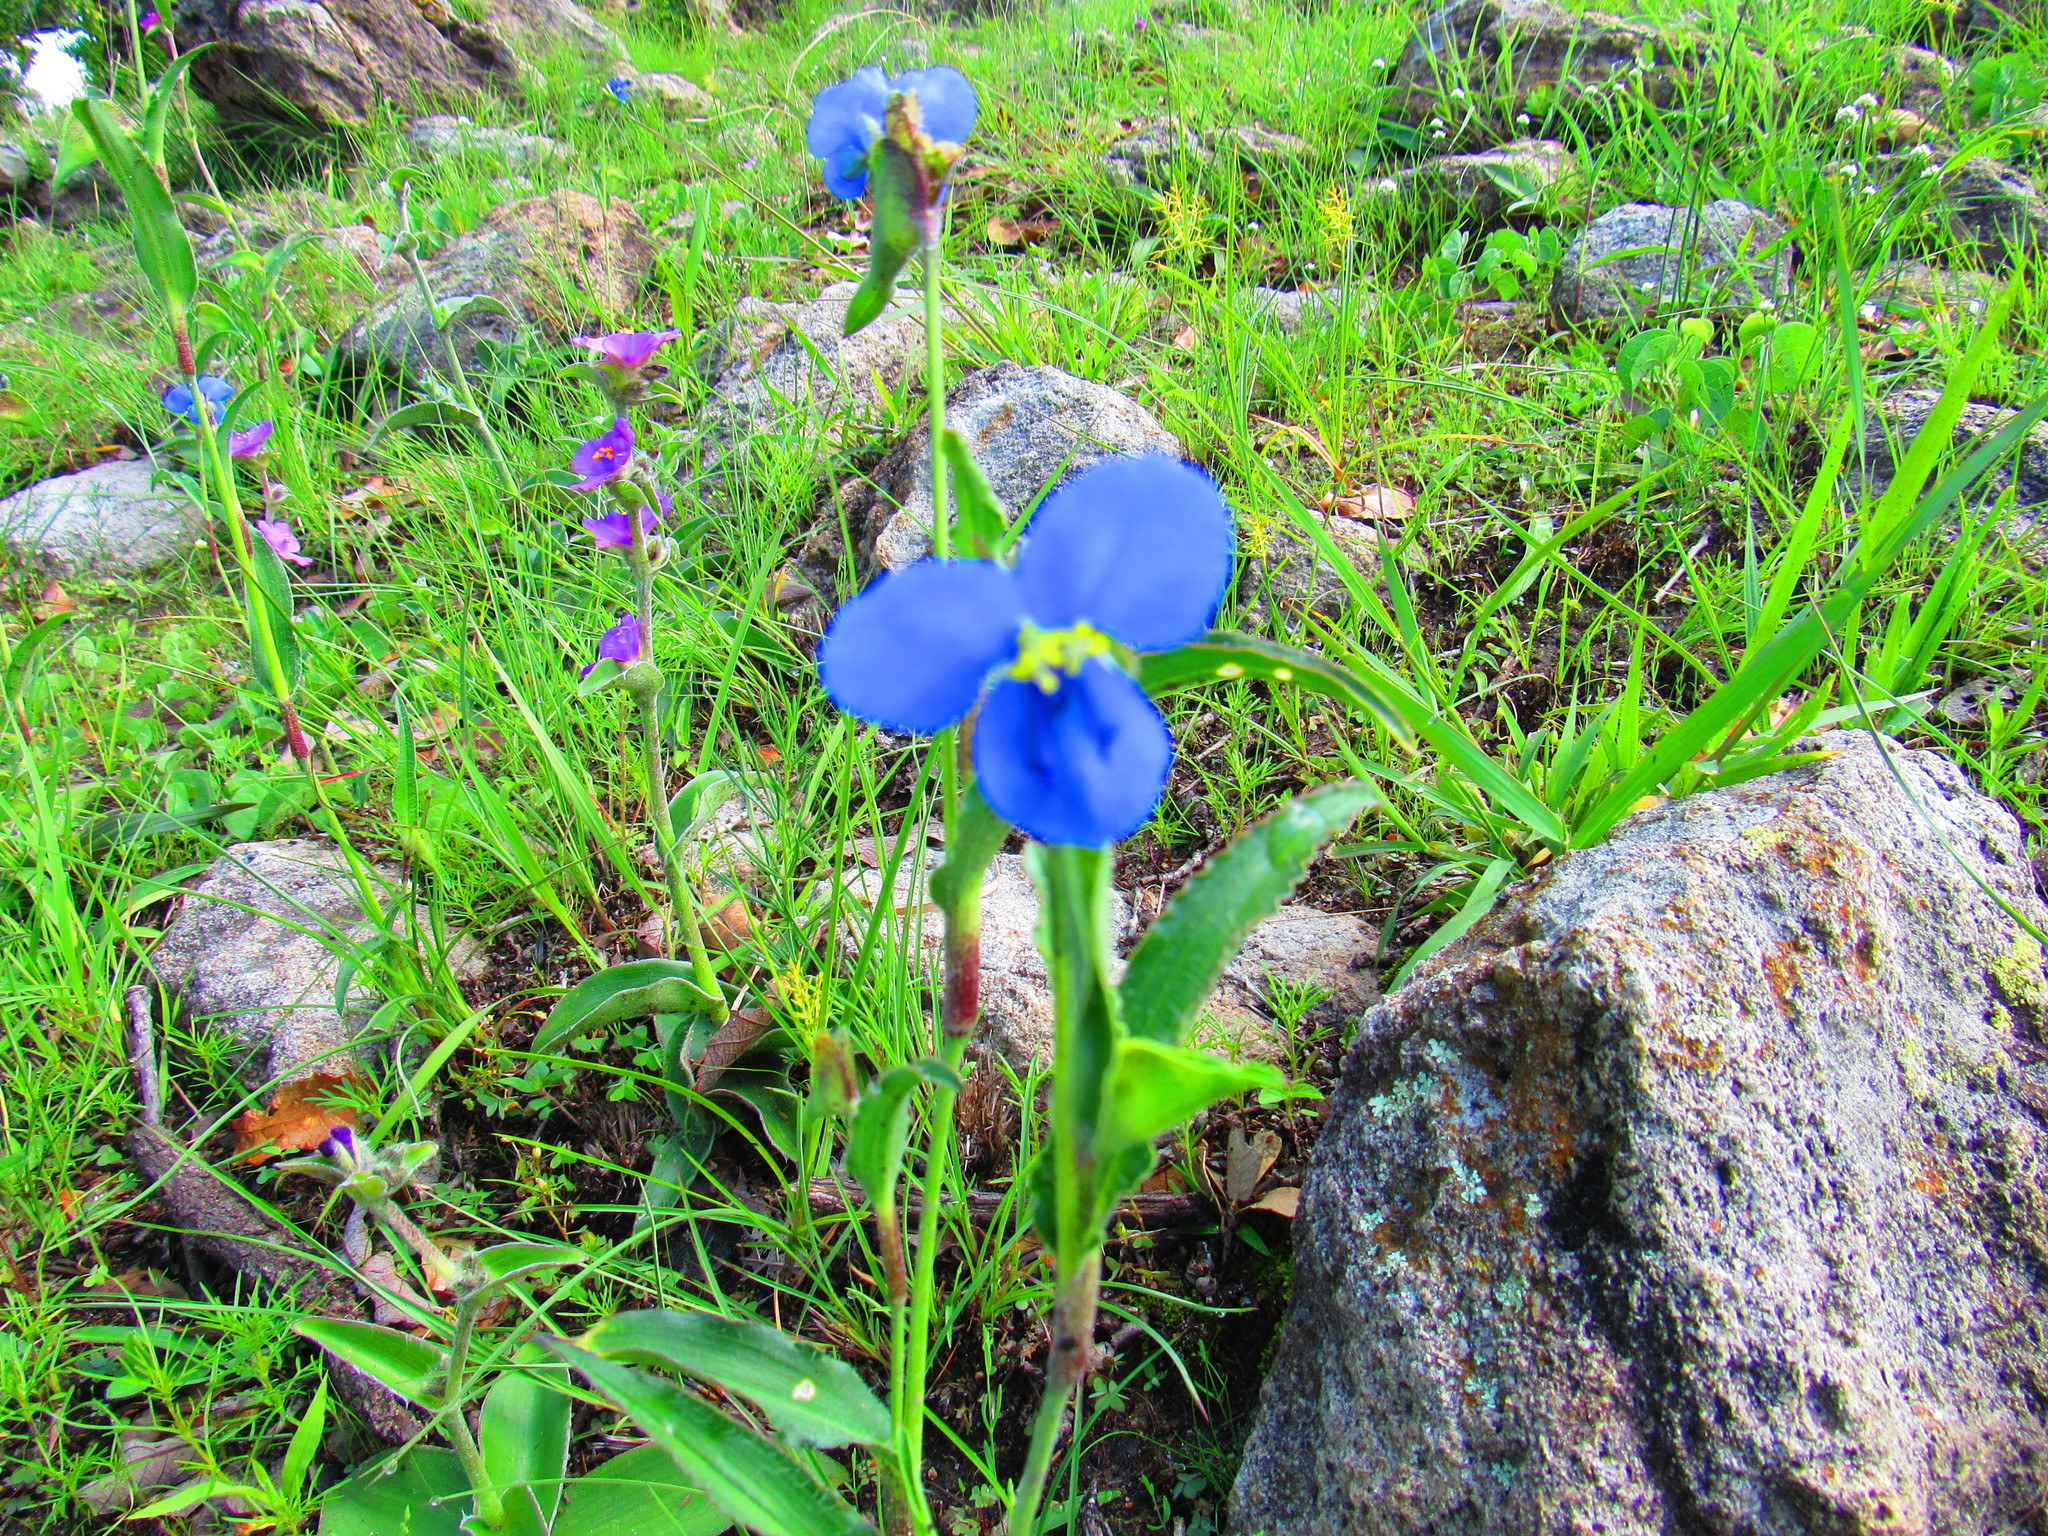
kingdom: Plantae
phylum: Tracheophyta
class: Liliopsida
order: Commelinales
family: Commelinaceae
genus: Commelina
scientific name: Commelina dianthifolia
